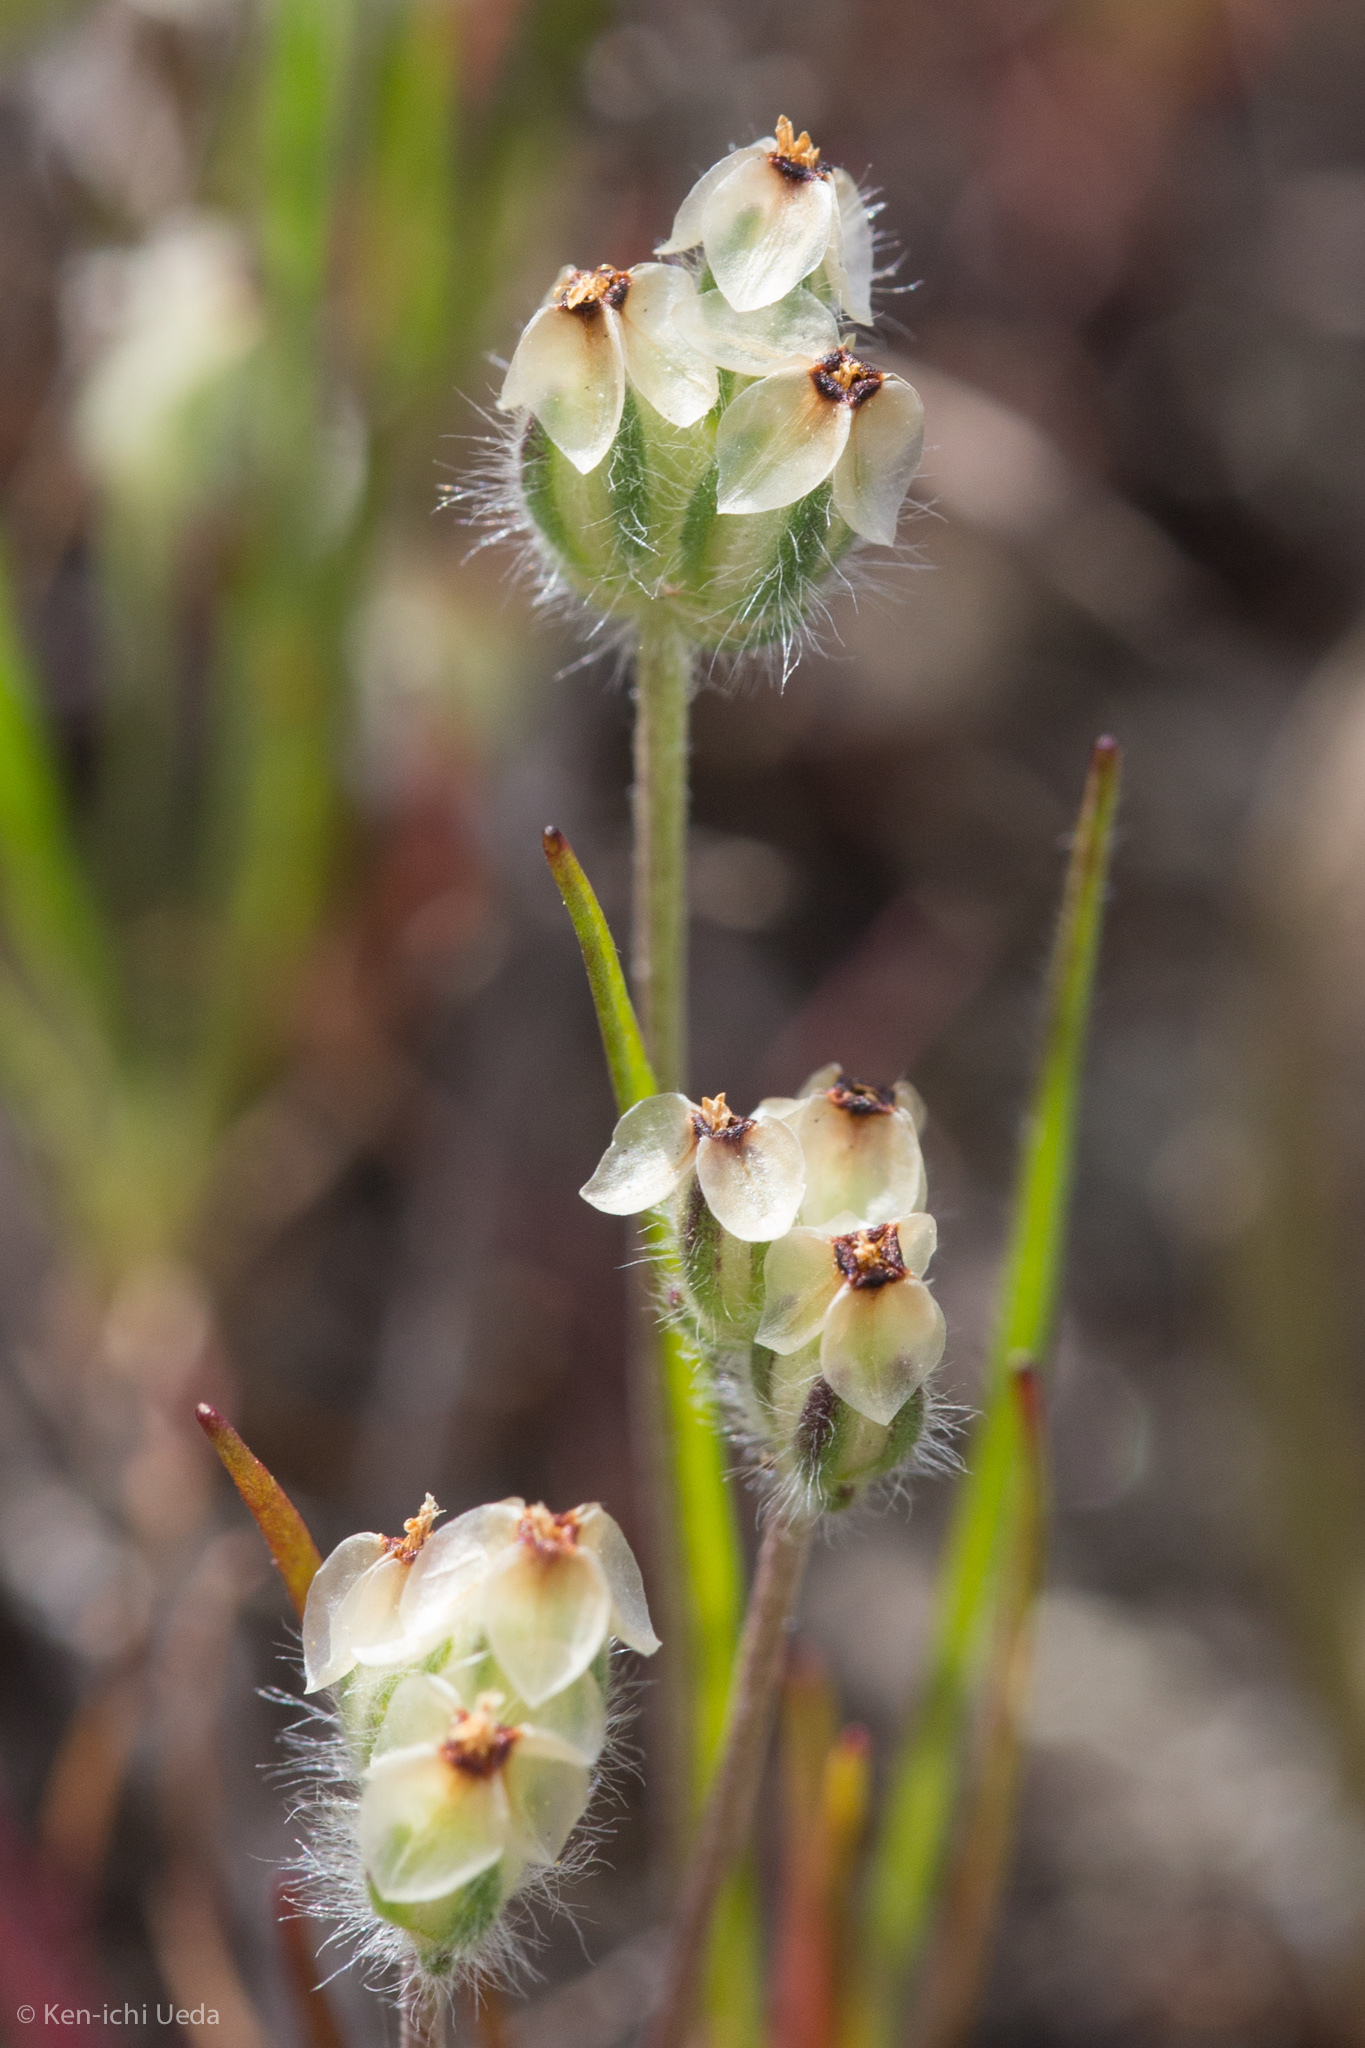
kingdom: Plantae
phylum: Tracheophyta
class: Magnoliopsida
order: Lamiales
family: Plantaginaceae
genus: Plantago
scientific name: Plantago erecta
